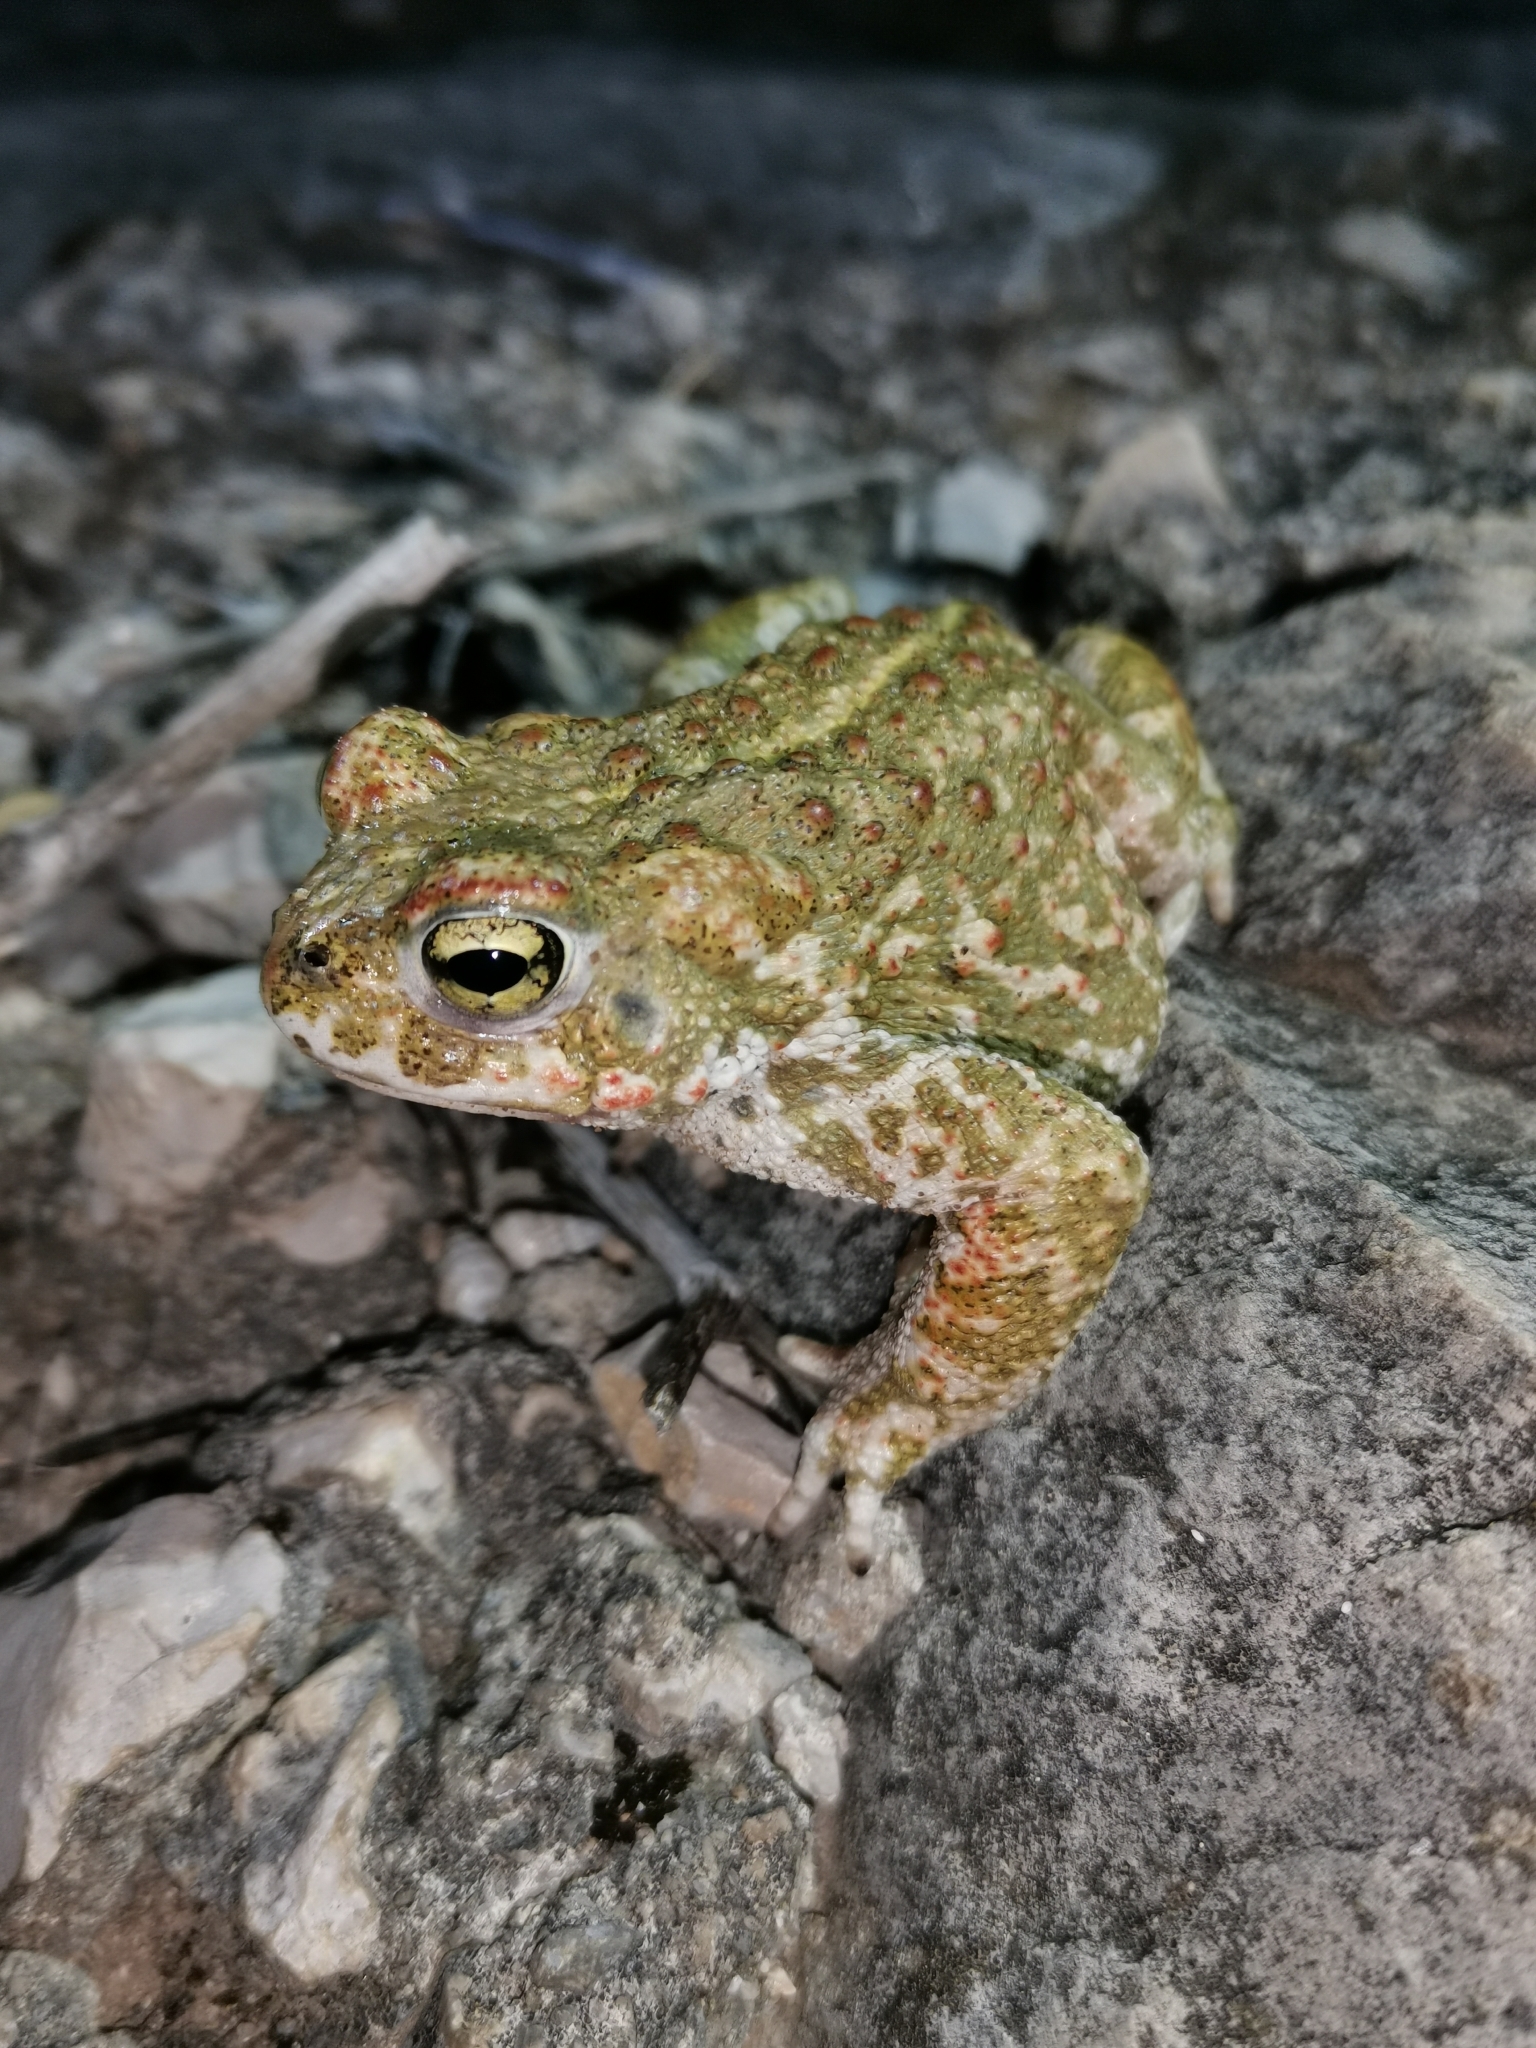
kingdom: Animalia
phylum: Chordata
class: Amphibia
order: Anura
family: Bufonidae
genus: Epidalea
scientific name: Epidalea calamita
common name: Natterjack toad
